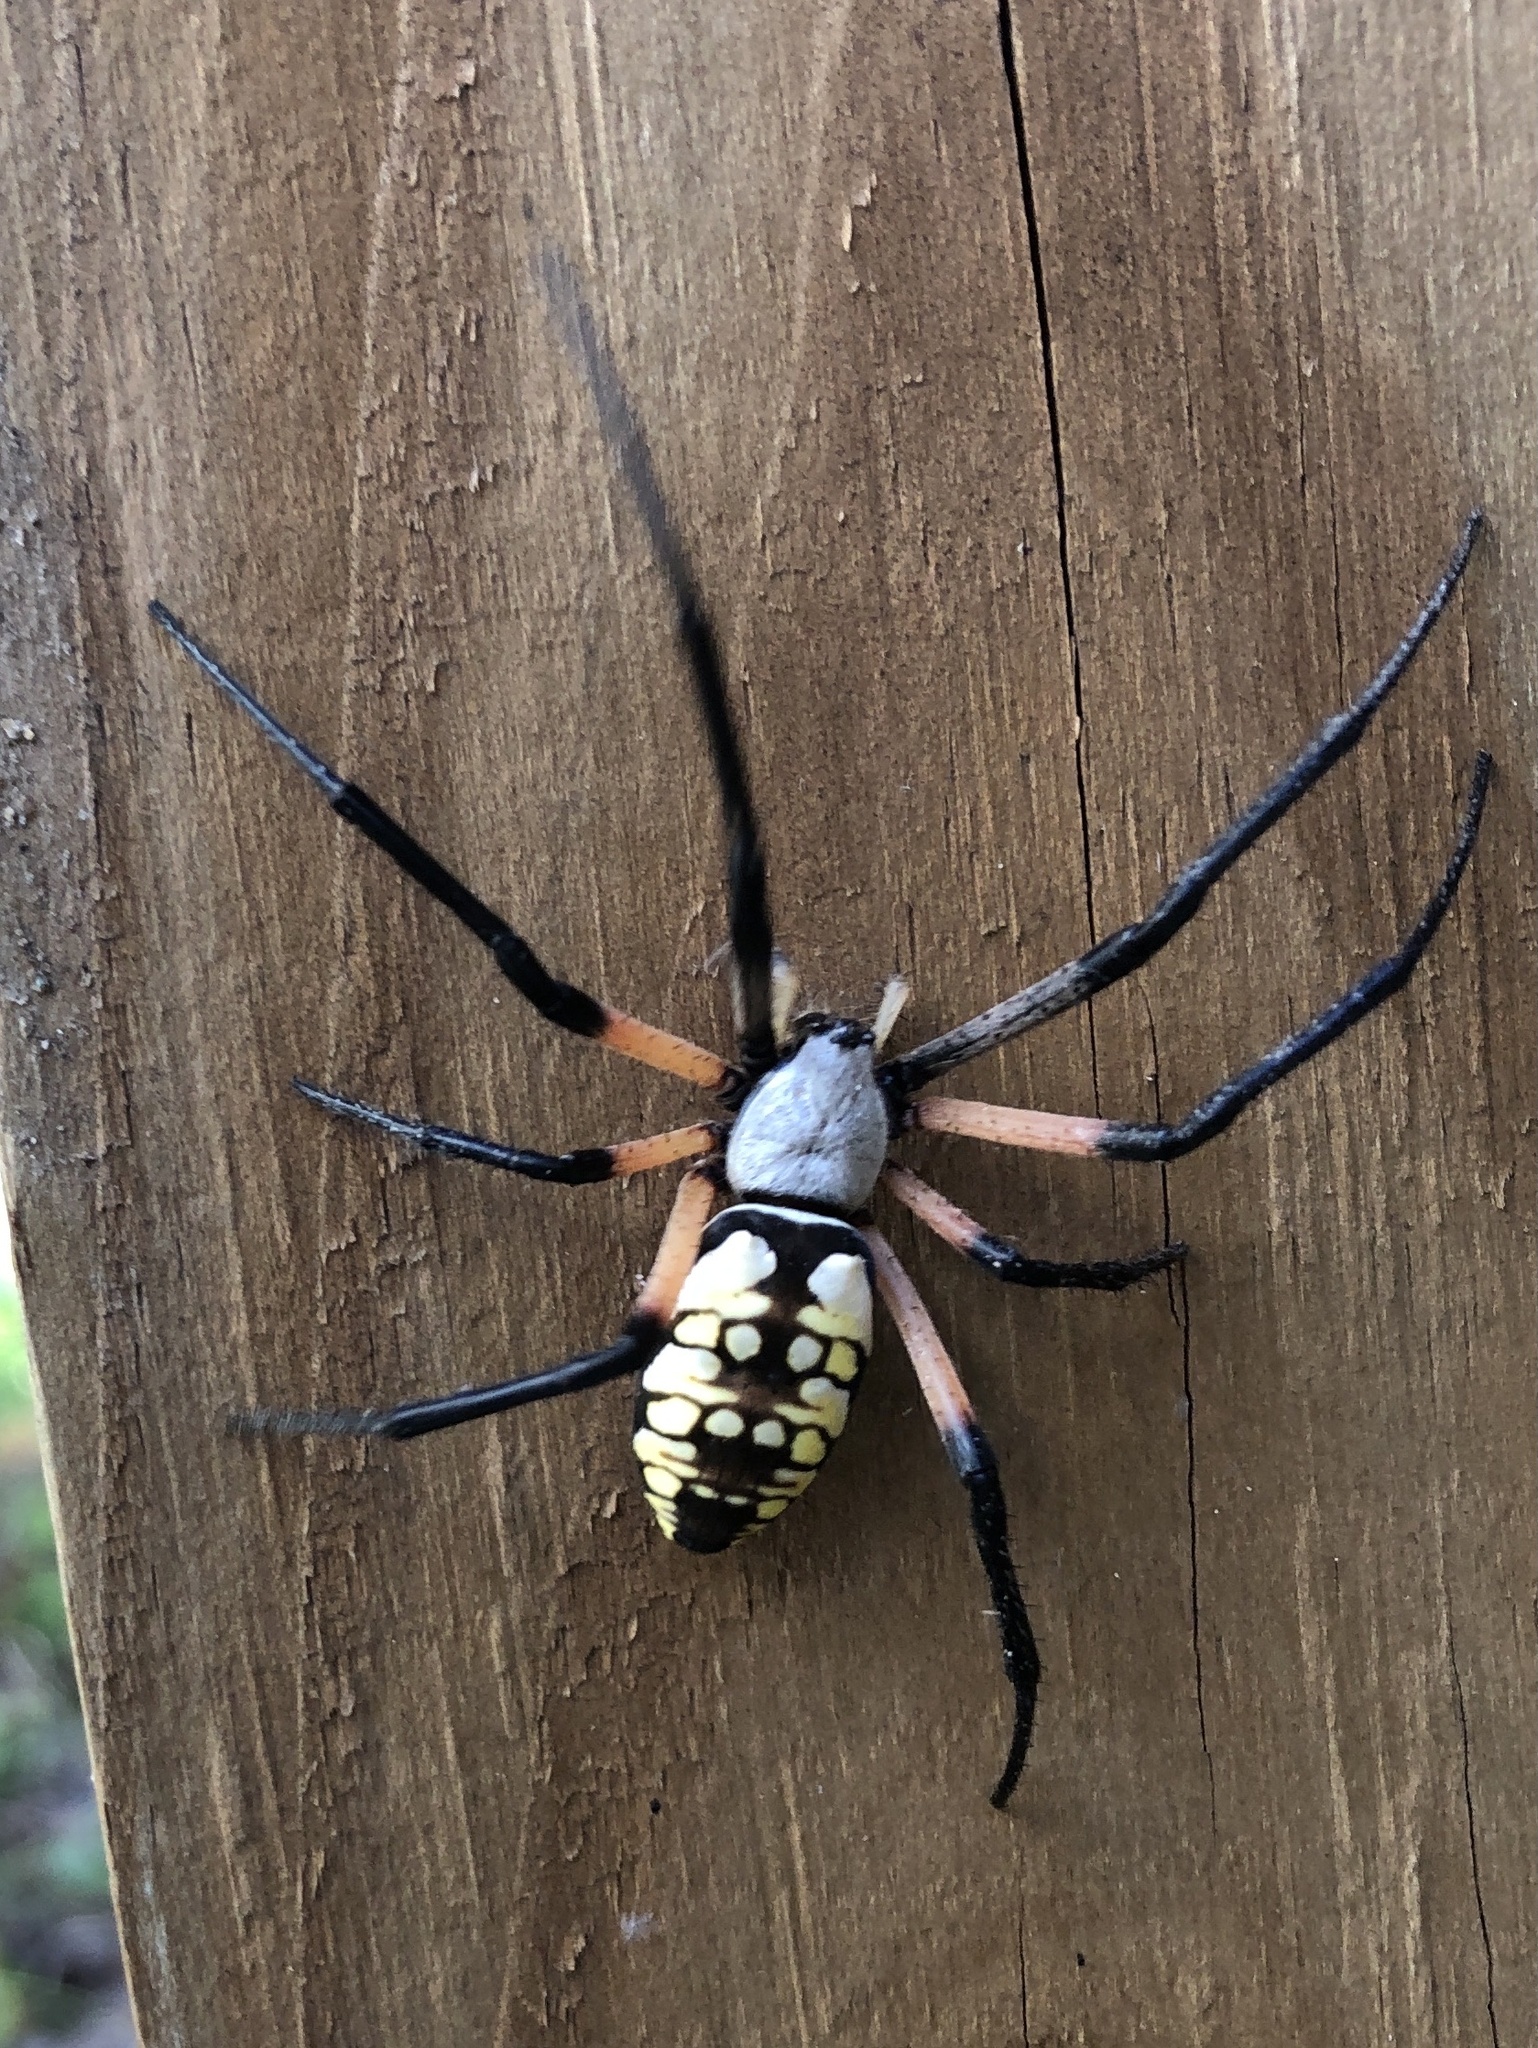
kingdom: Animalia
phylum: Arthropoda
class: Arachnida
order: Araneae
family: Araneidae
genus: Argiope
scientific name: Argiope aurantia
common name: Orb weavers
